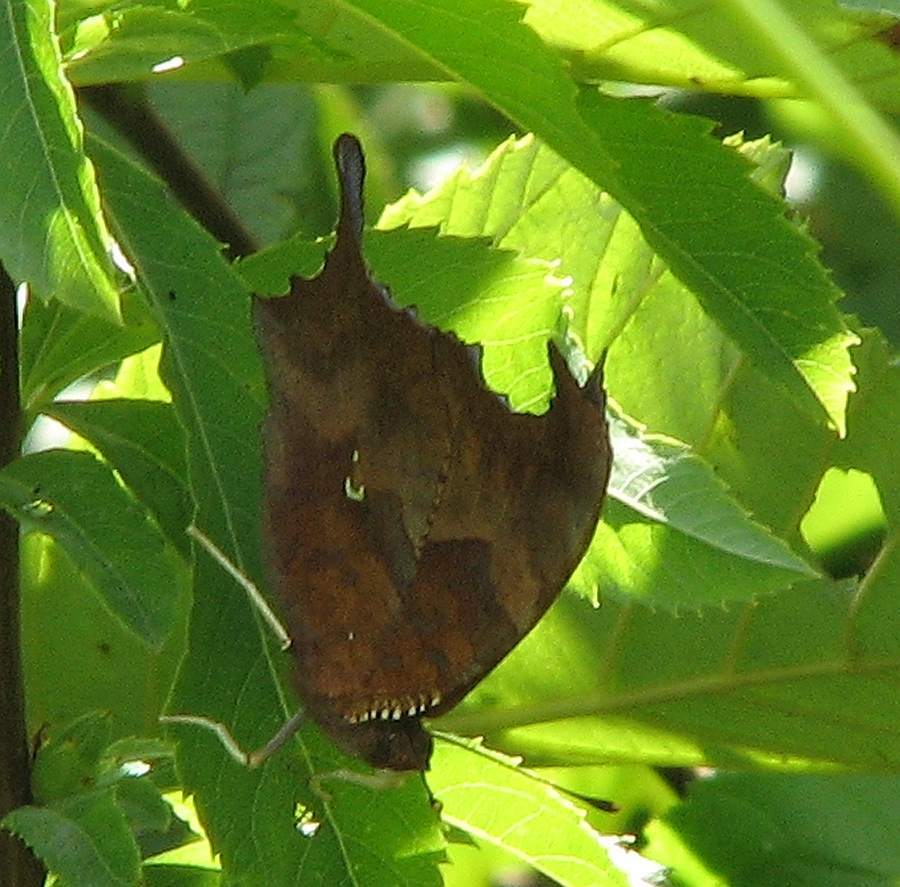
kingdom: Animalia
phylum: Arthropoda
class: Insecta
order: Lepidoptera
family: Nymphalidae
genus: Polygonia
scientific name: Polygonia interrogationis
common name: Question mark
